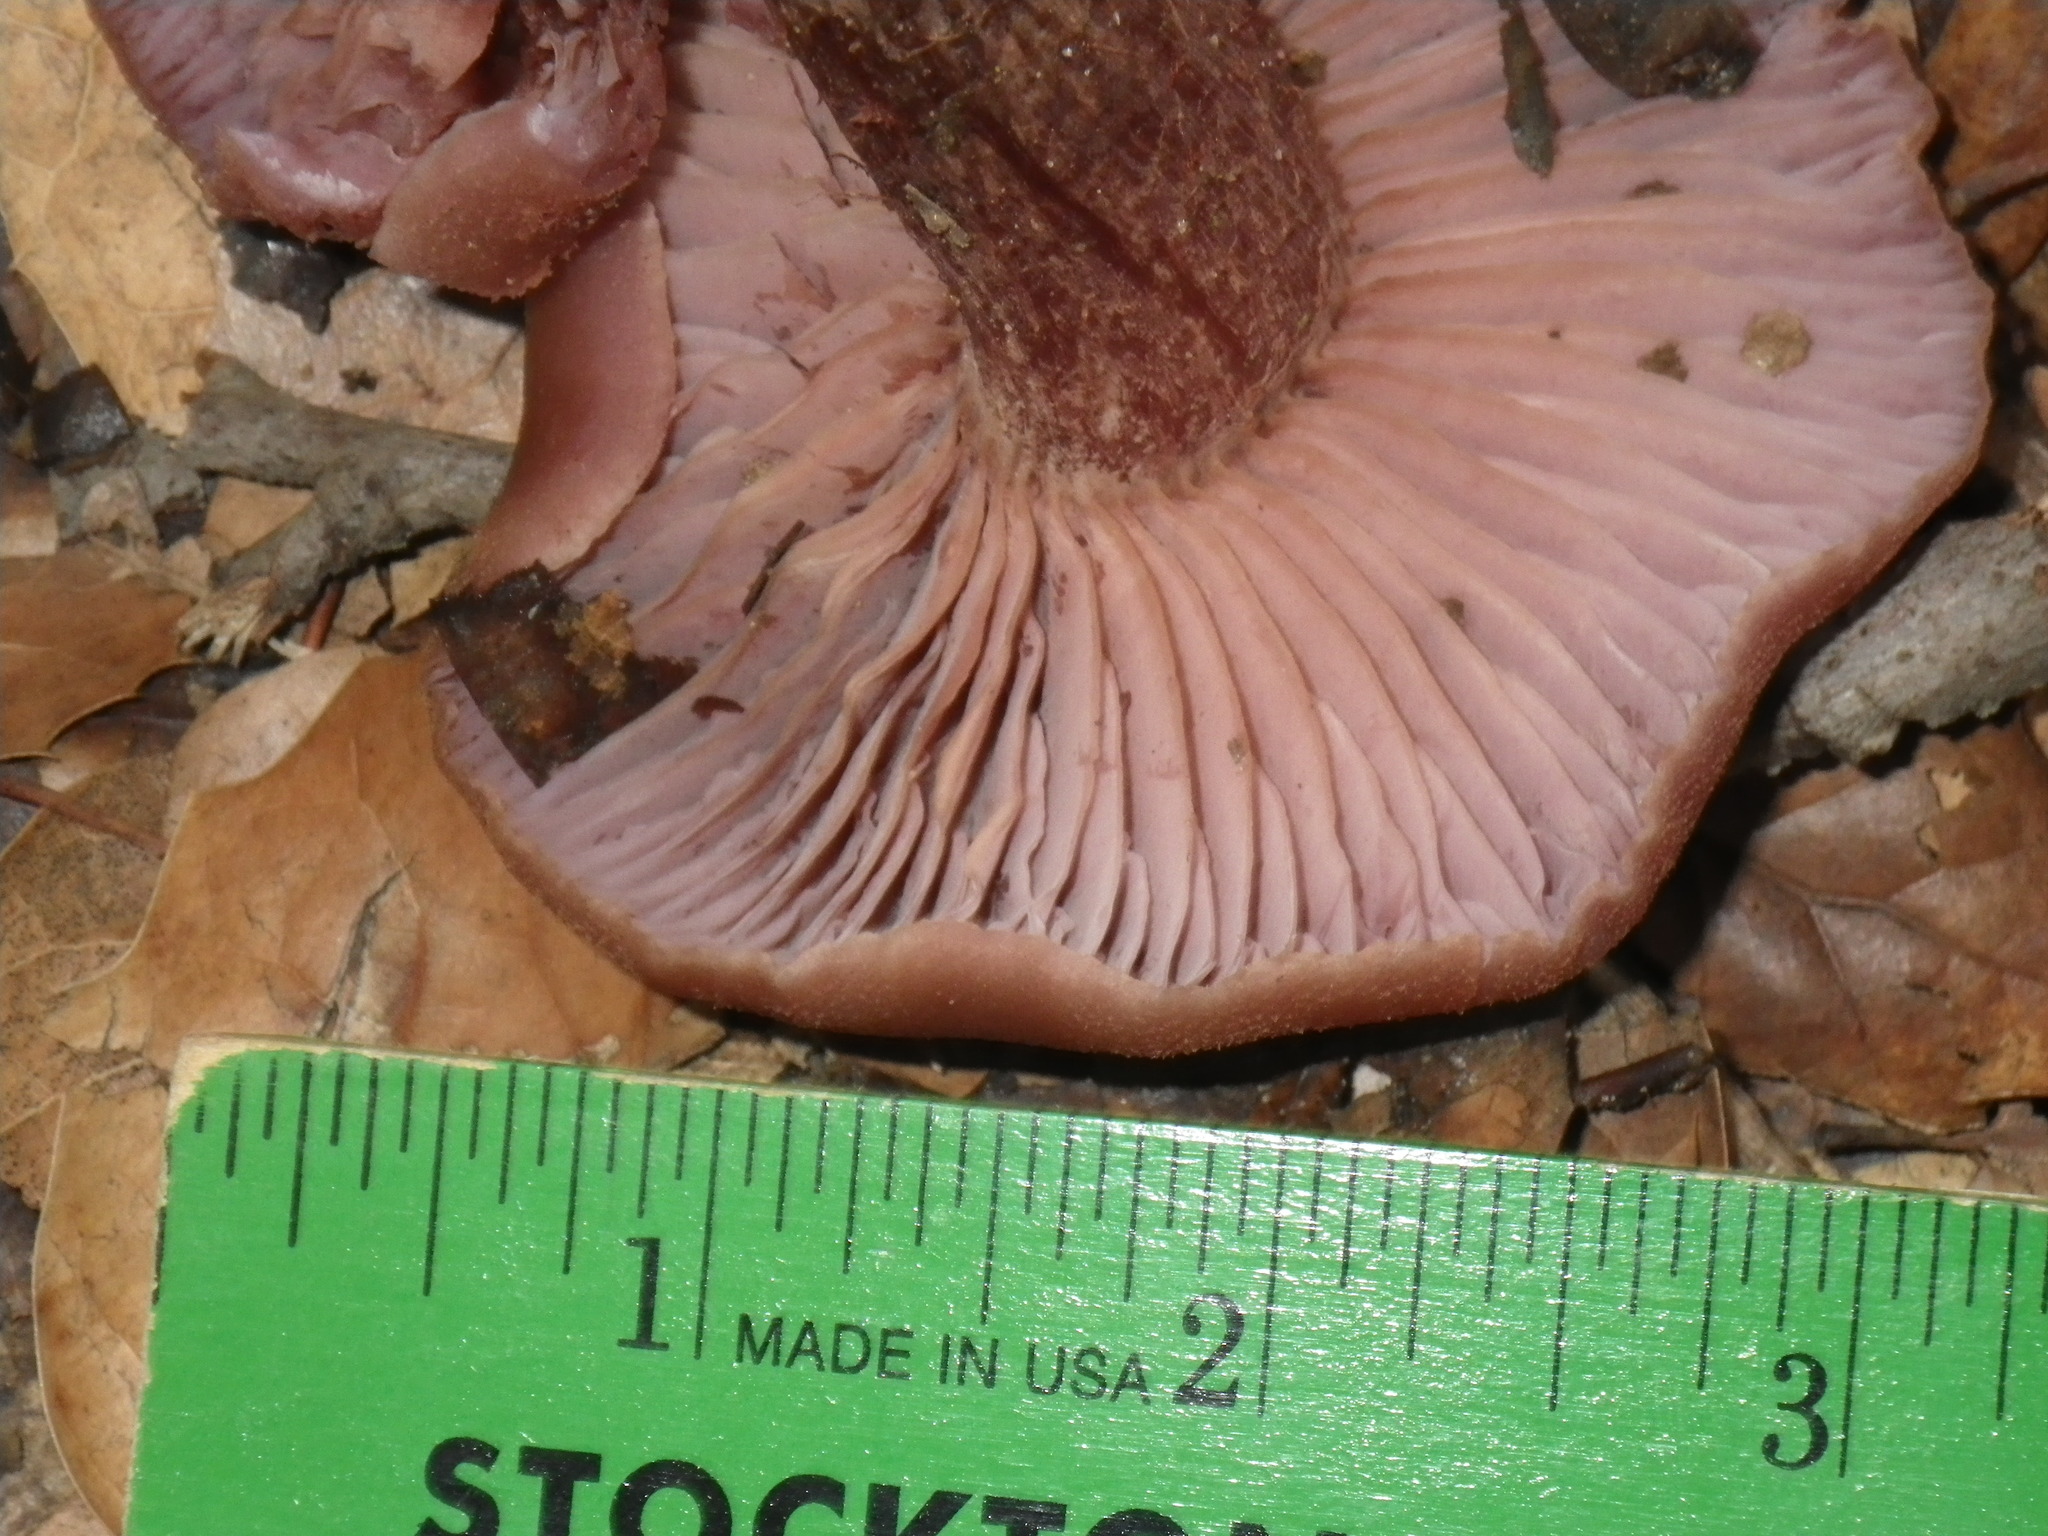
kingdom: Fungi
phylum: Basidiomycota
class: Agaricomycetes
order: Agaricales
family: Hydnangiaceae
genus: Laccaria
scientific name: Laccaria amethysteo-occidentalis
